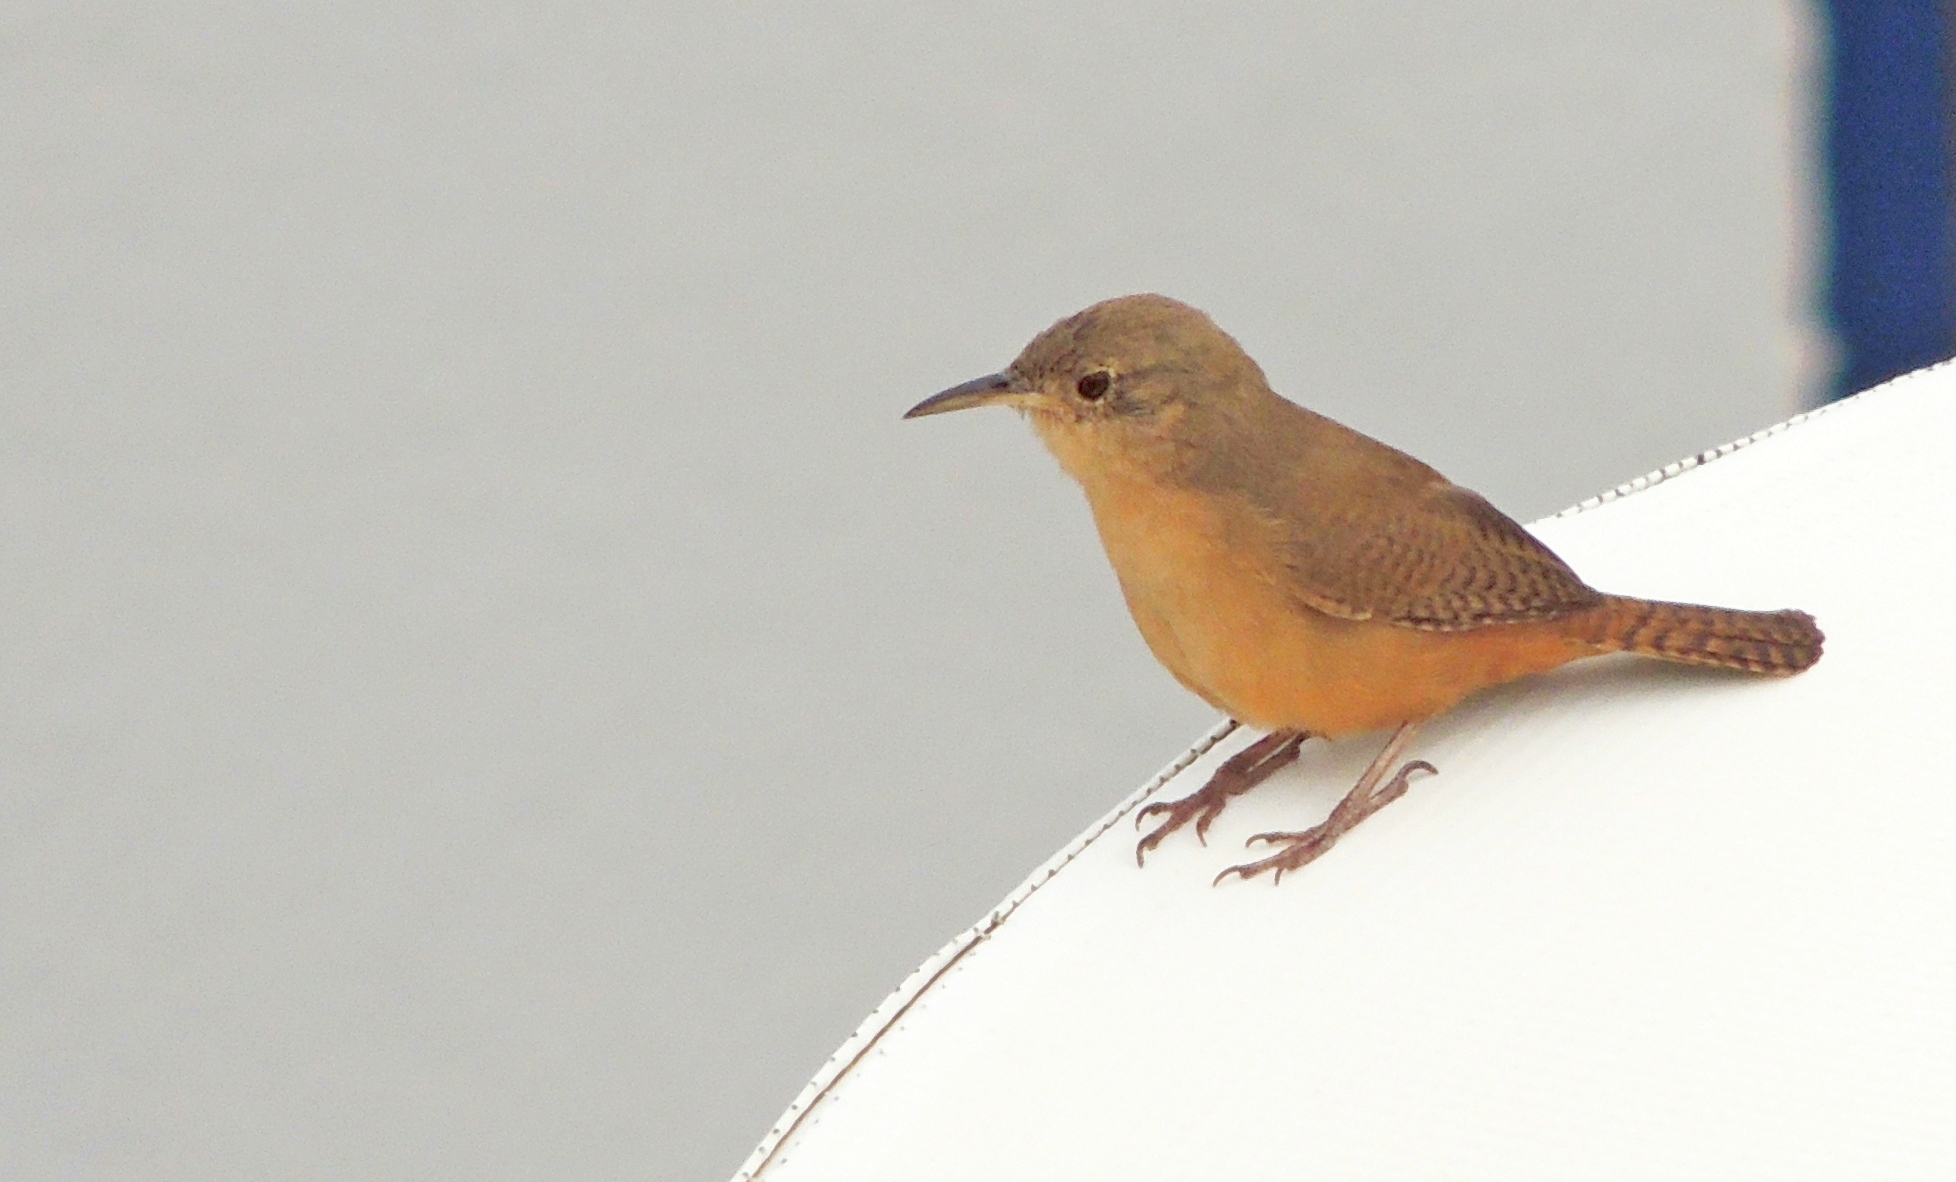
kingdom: Animalia
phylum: Chordata
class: Aves
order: Passeriformes
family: Troglodytidae
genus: Troglodytes
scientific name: Troglodytes aedon
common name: House wren
